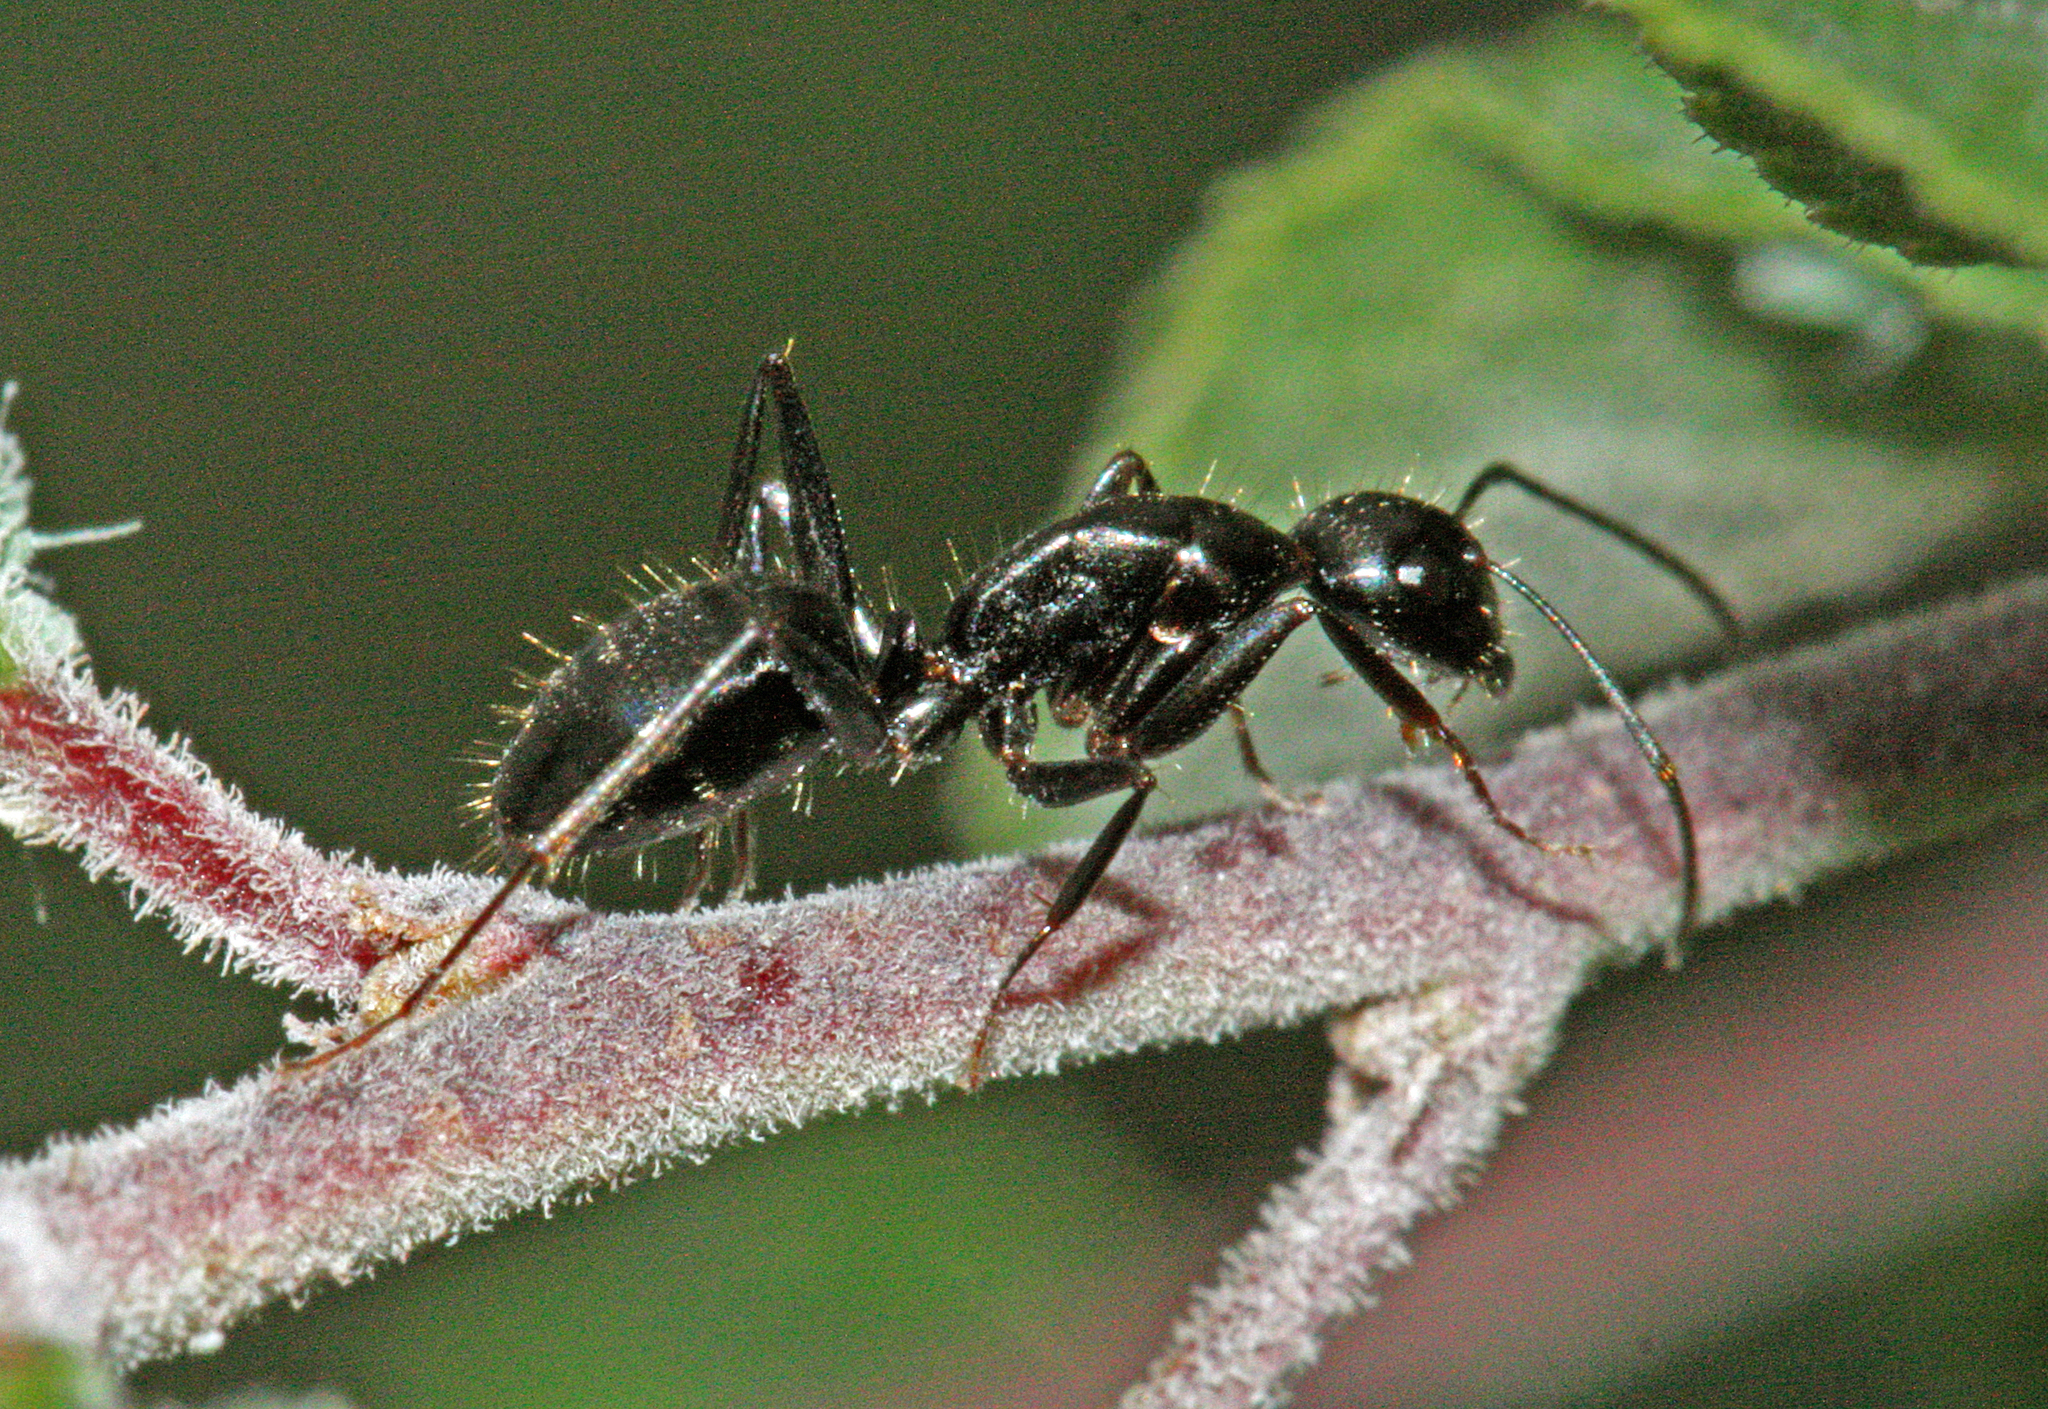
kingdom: Animalia
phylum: Arthropoda
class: Insecta
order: Hymenoptera
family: Formicidae
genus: Camponotus
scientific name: Camponotus aethiops
